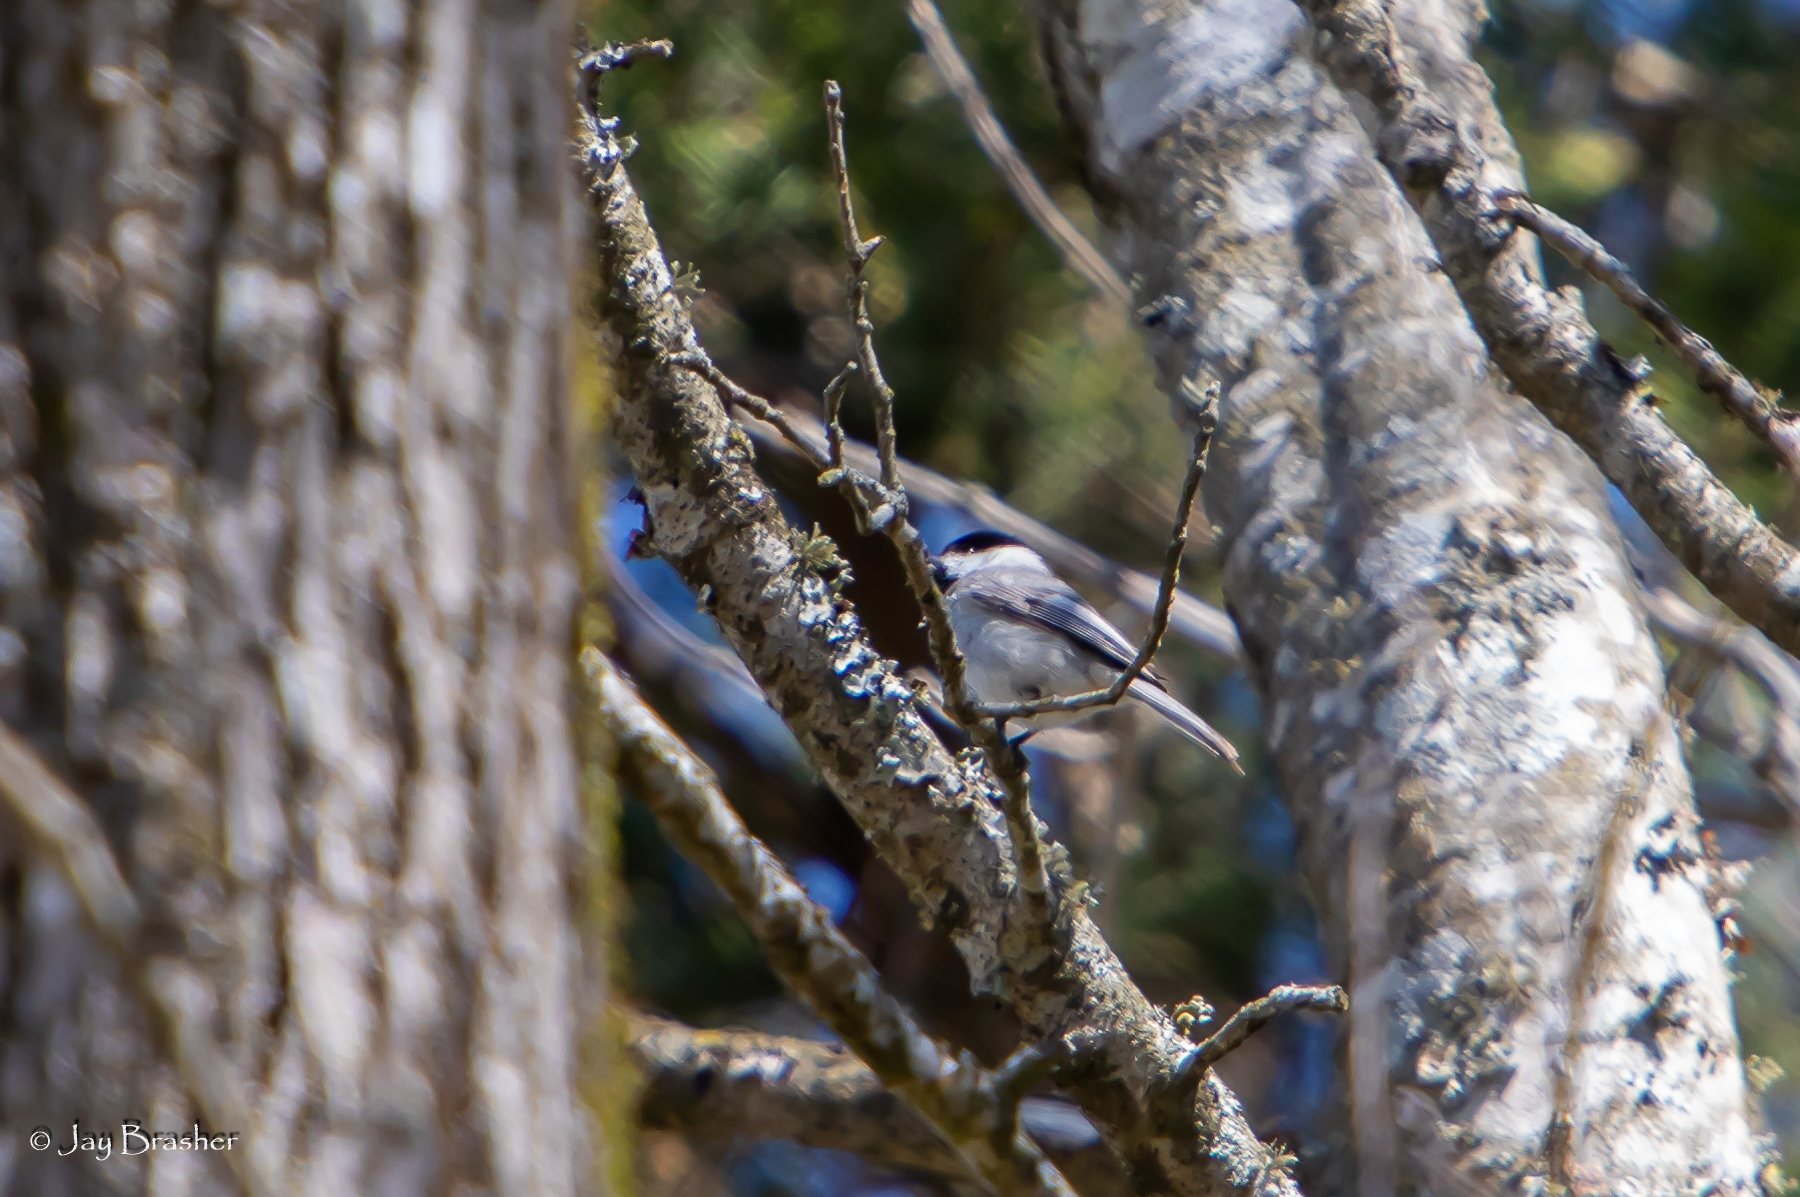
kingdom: Animalia
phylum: Chordata
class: Aves
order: Passeriformes
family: Paridae
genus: Poecile
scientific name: Poecile carolinensis
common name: Carolina chickadee
